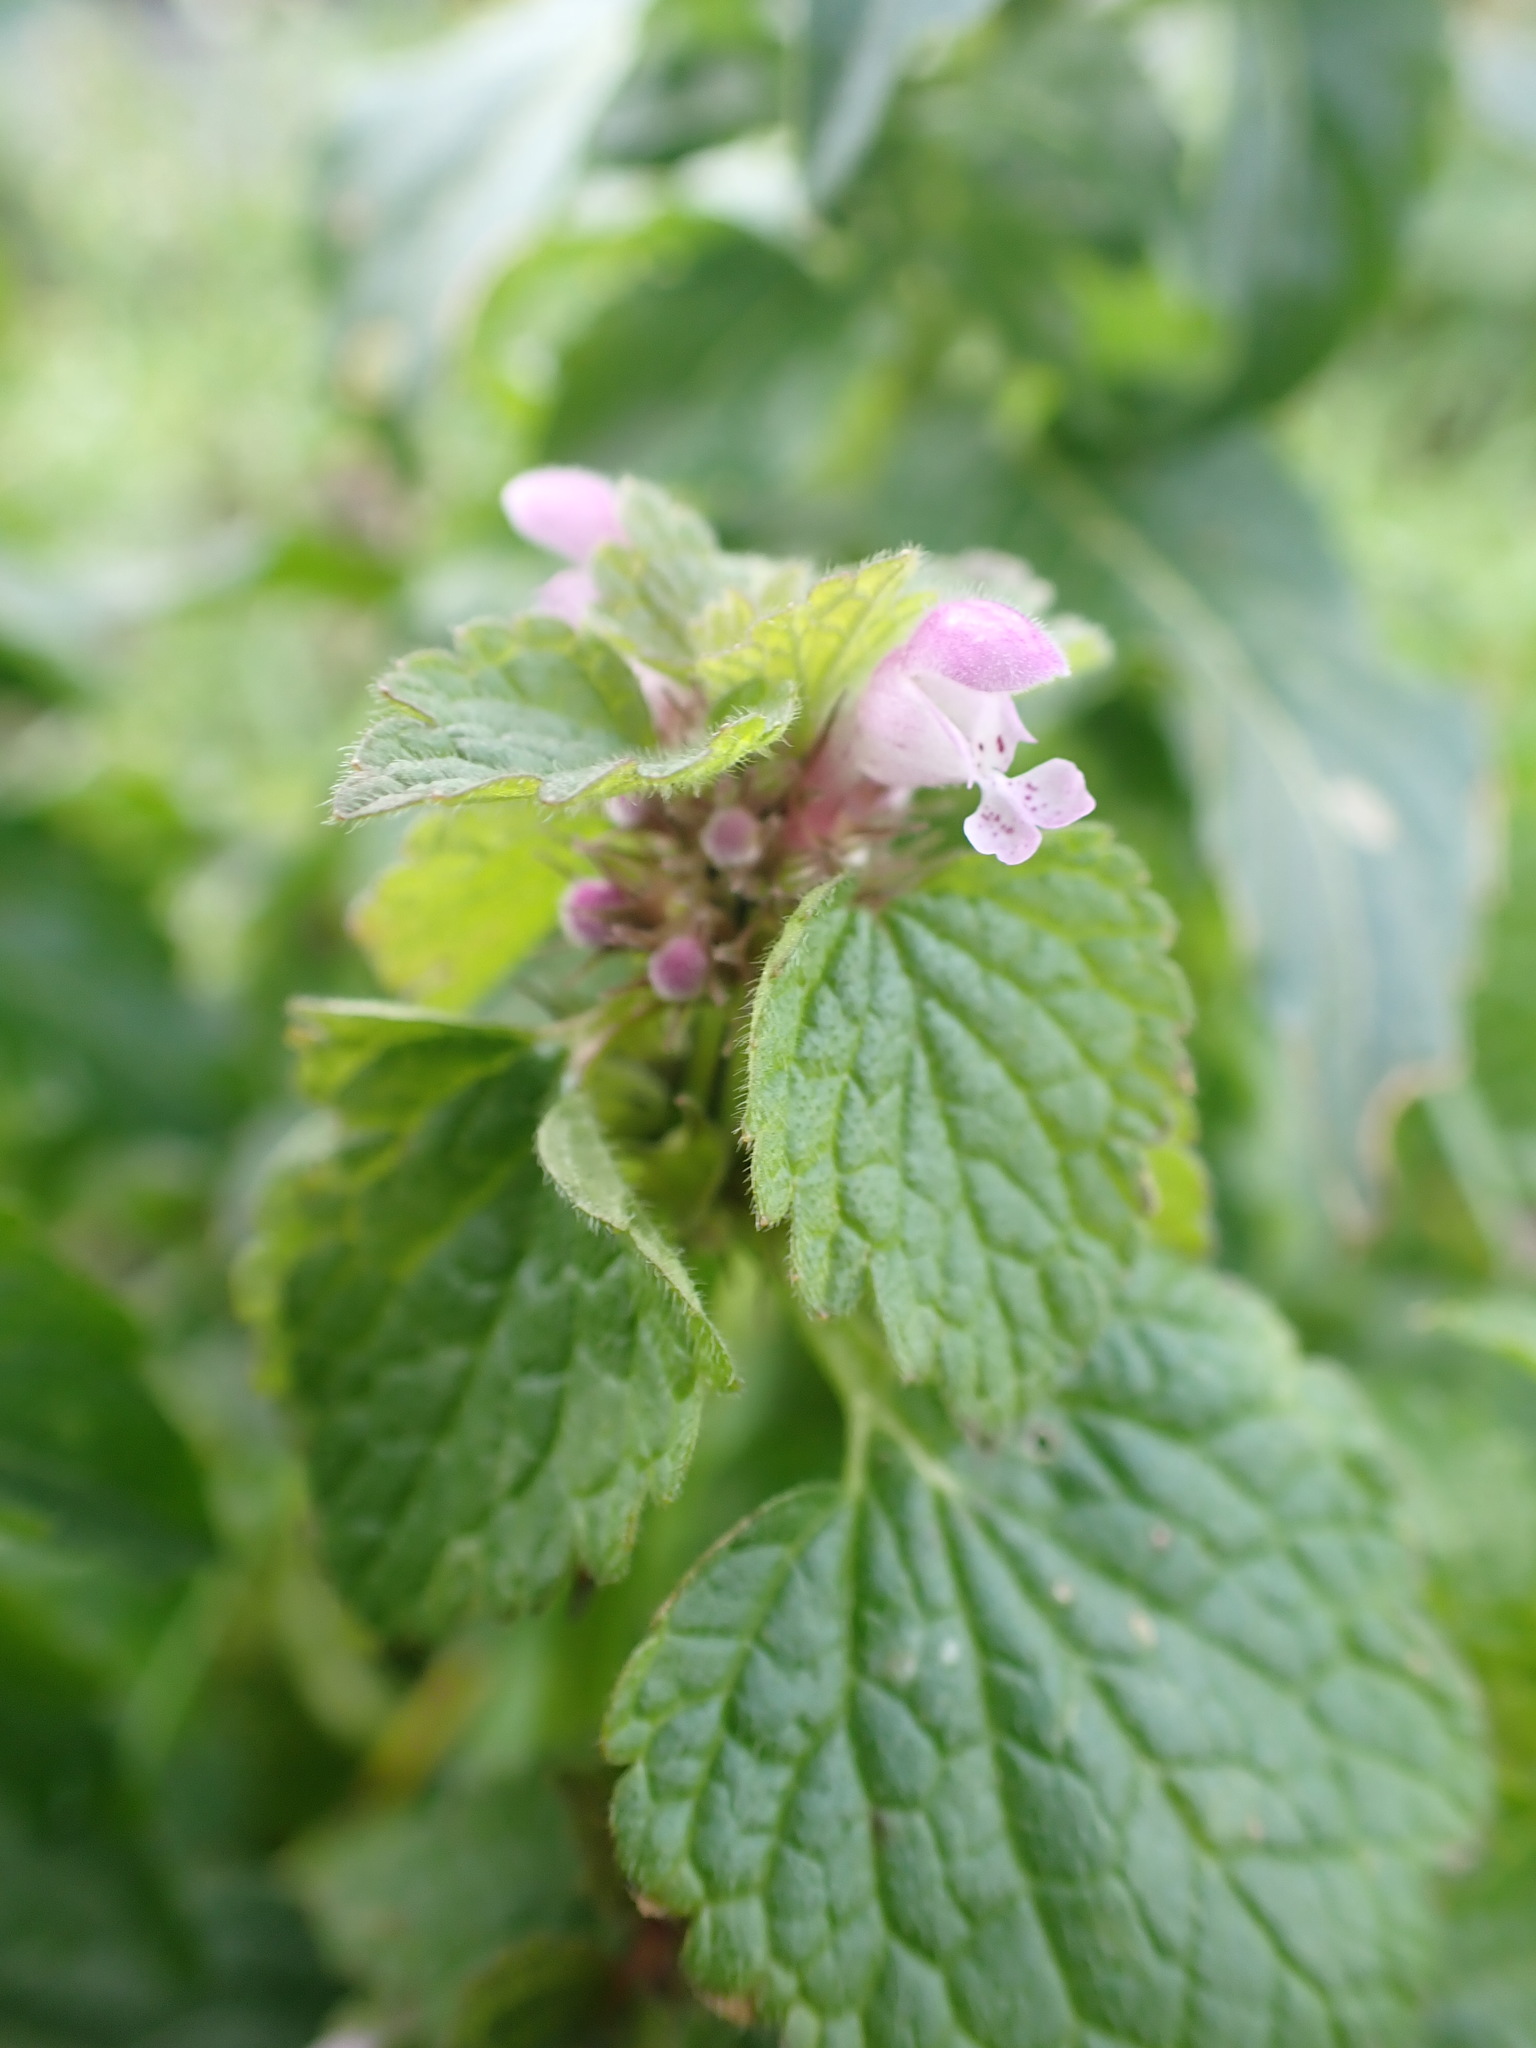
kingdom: Plantae
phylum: Tracheophyta
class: Magnoliopsida
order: Lamiales
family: Lamiaceae
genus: Lamium
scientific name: Lamium purpureum
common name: Red dead-nettle
